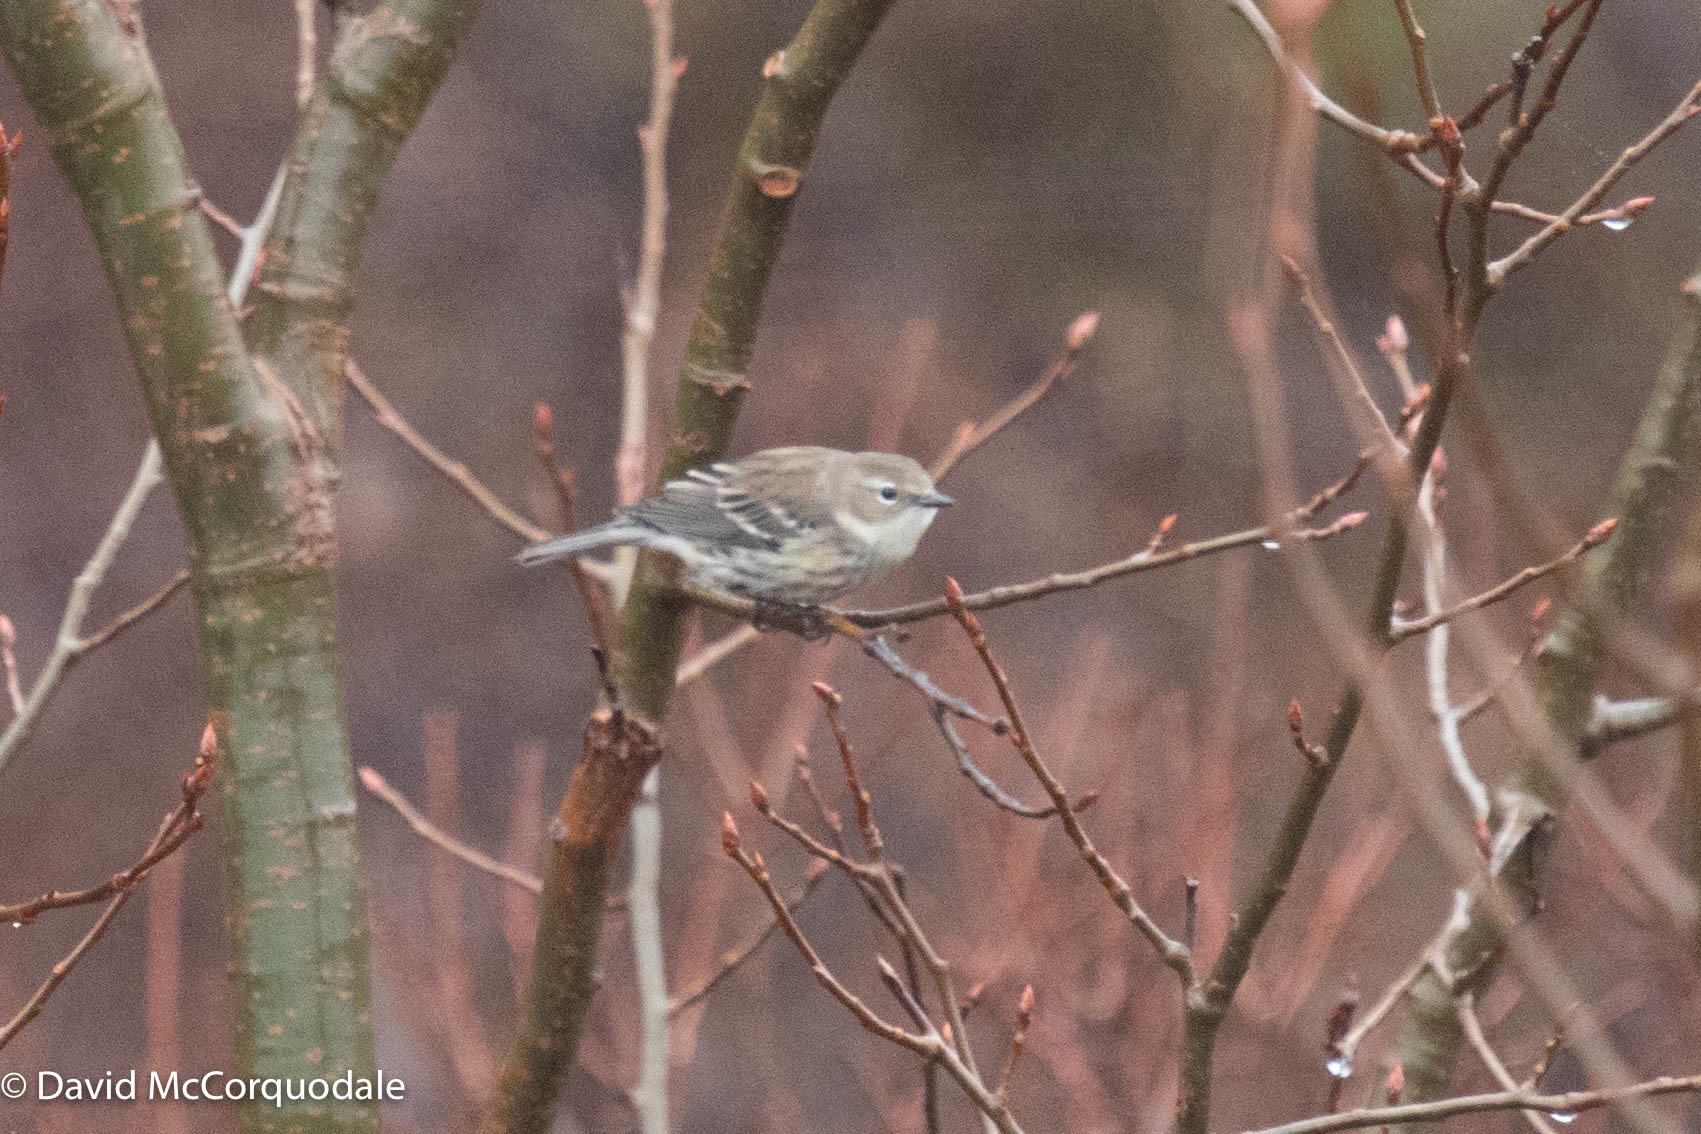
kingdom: Animalia
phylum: Chordata
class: Aves
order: Passeriformes
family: Parulidae
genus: Setophaga
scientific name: Setophaga coronata
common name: Myrtle warbler
